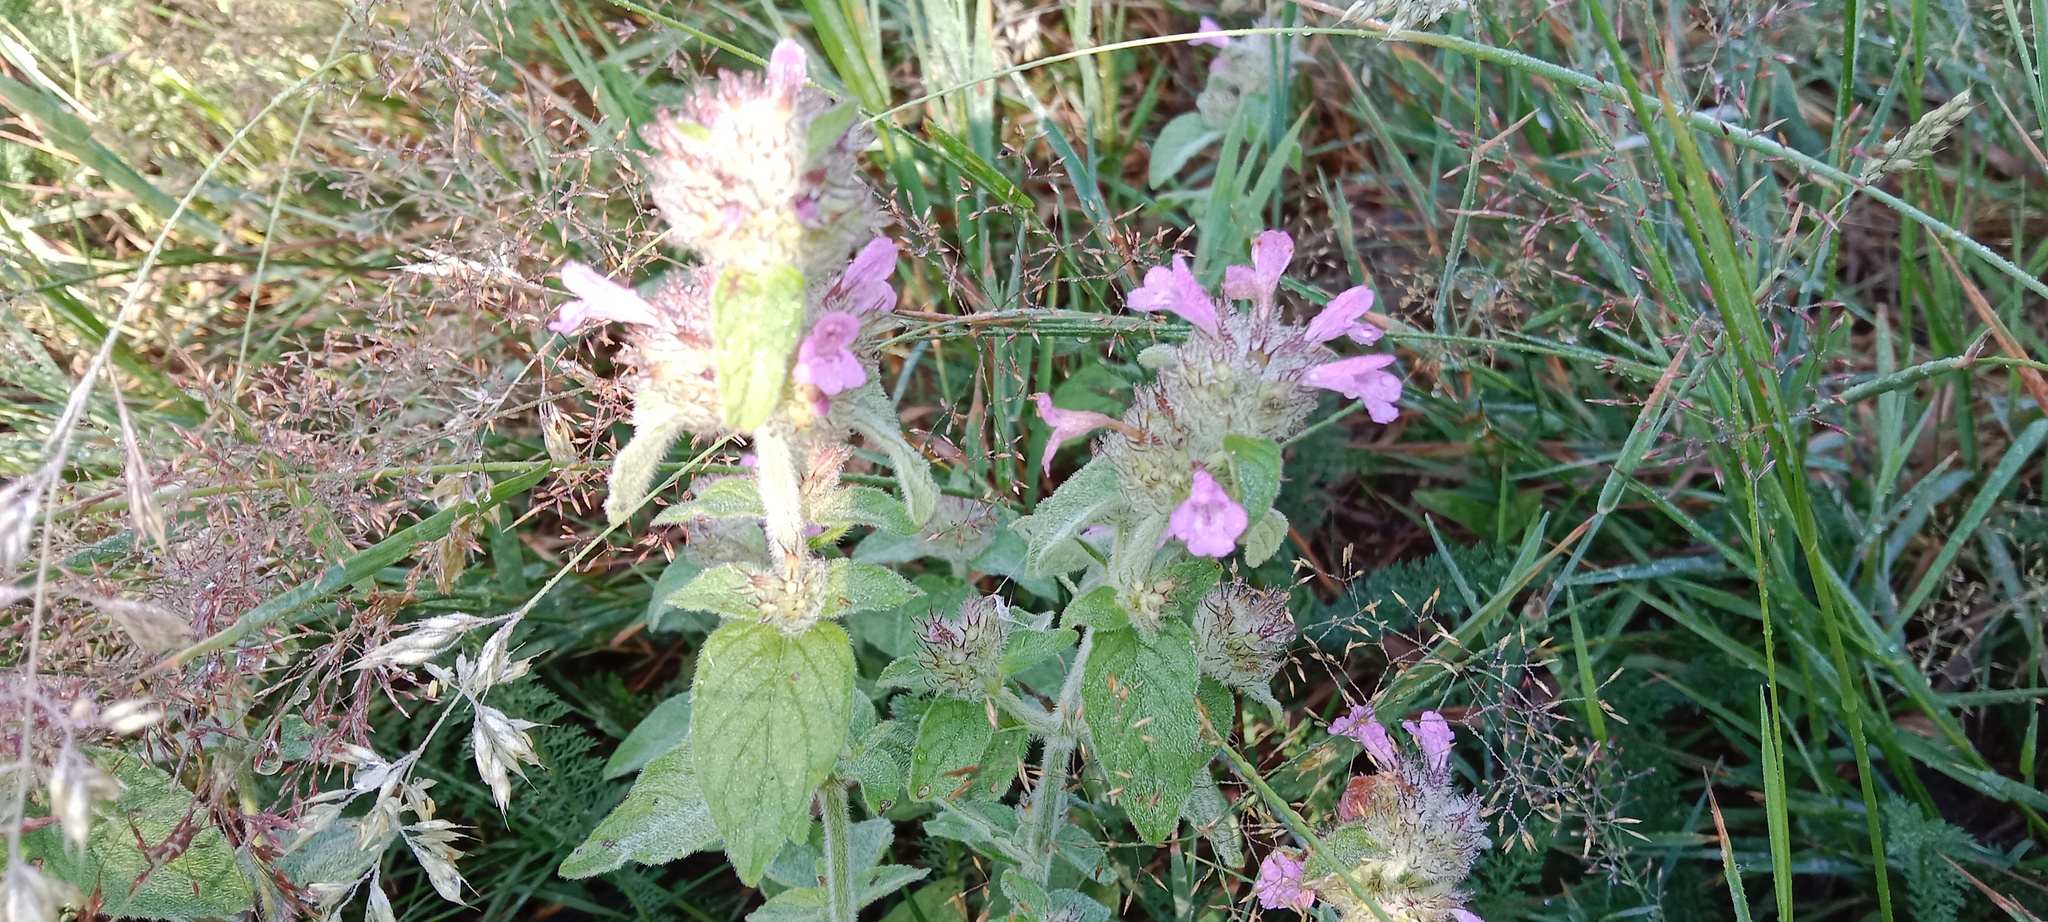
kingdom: Plantae
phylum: Tracheophyta
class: Magnoliopsida
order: Lamiales
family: Lamiaceae
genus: Clinopodium
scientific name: Clinopodium vulgare
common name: Wild basil
